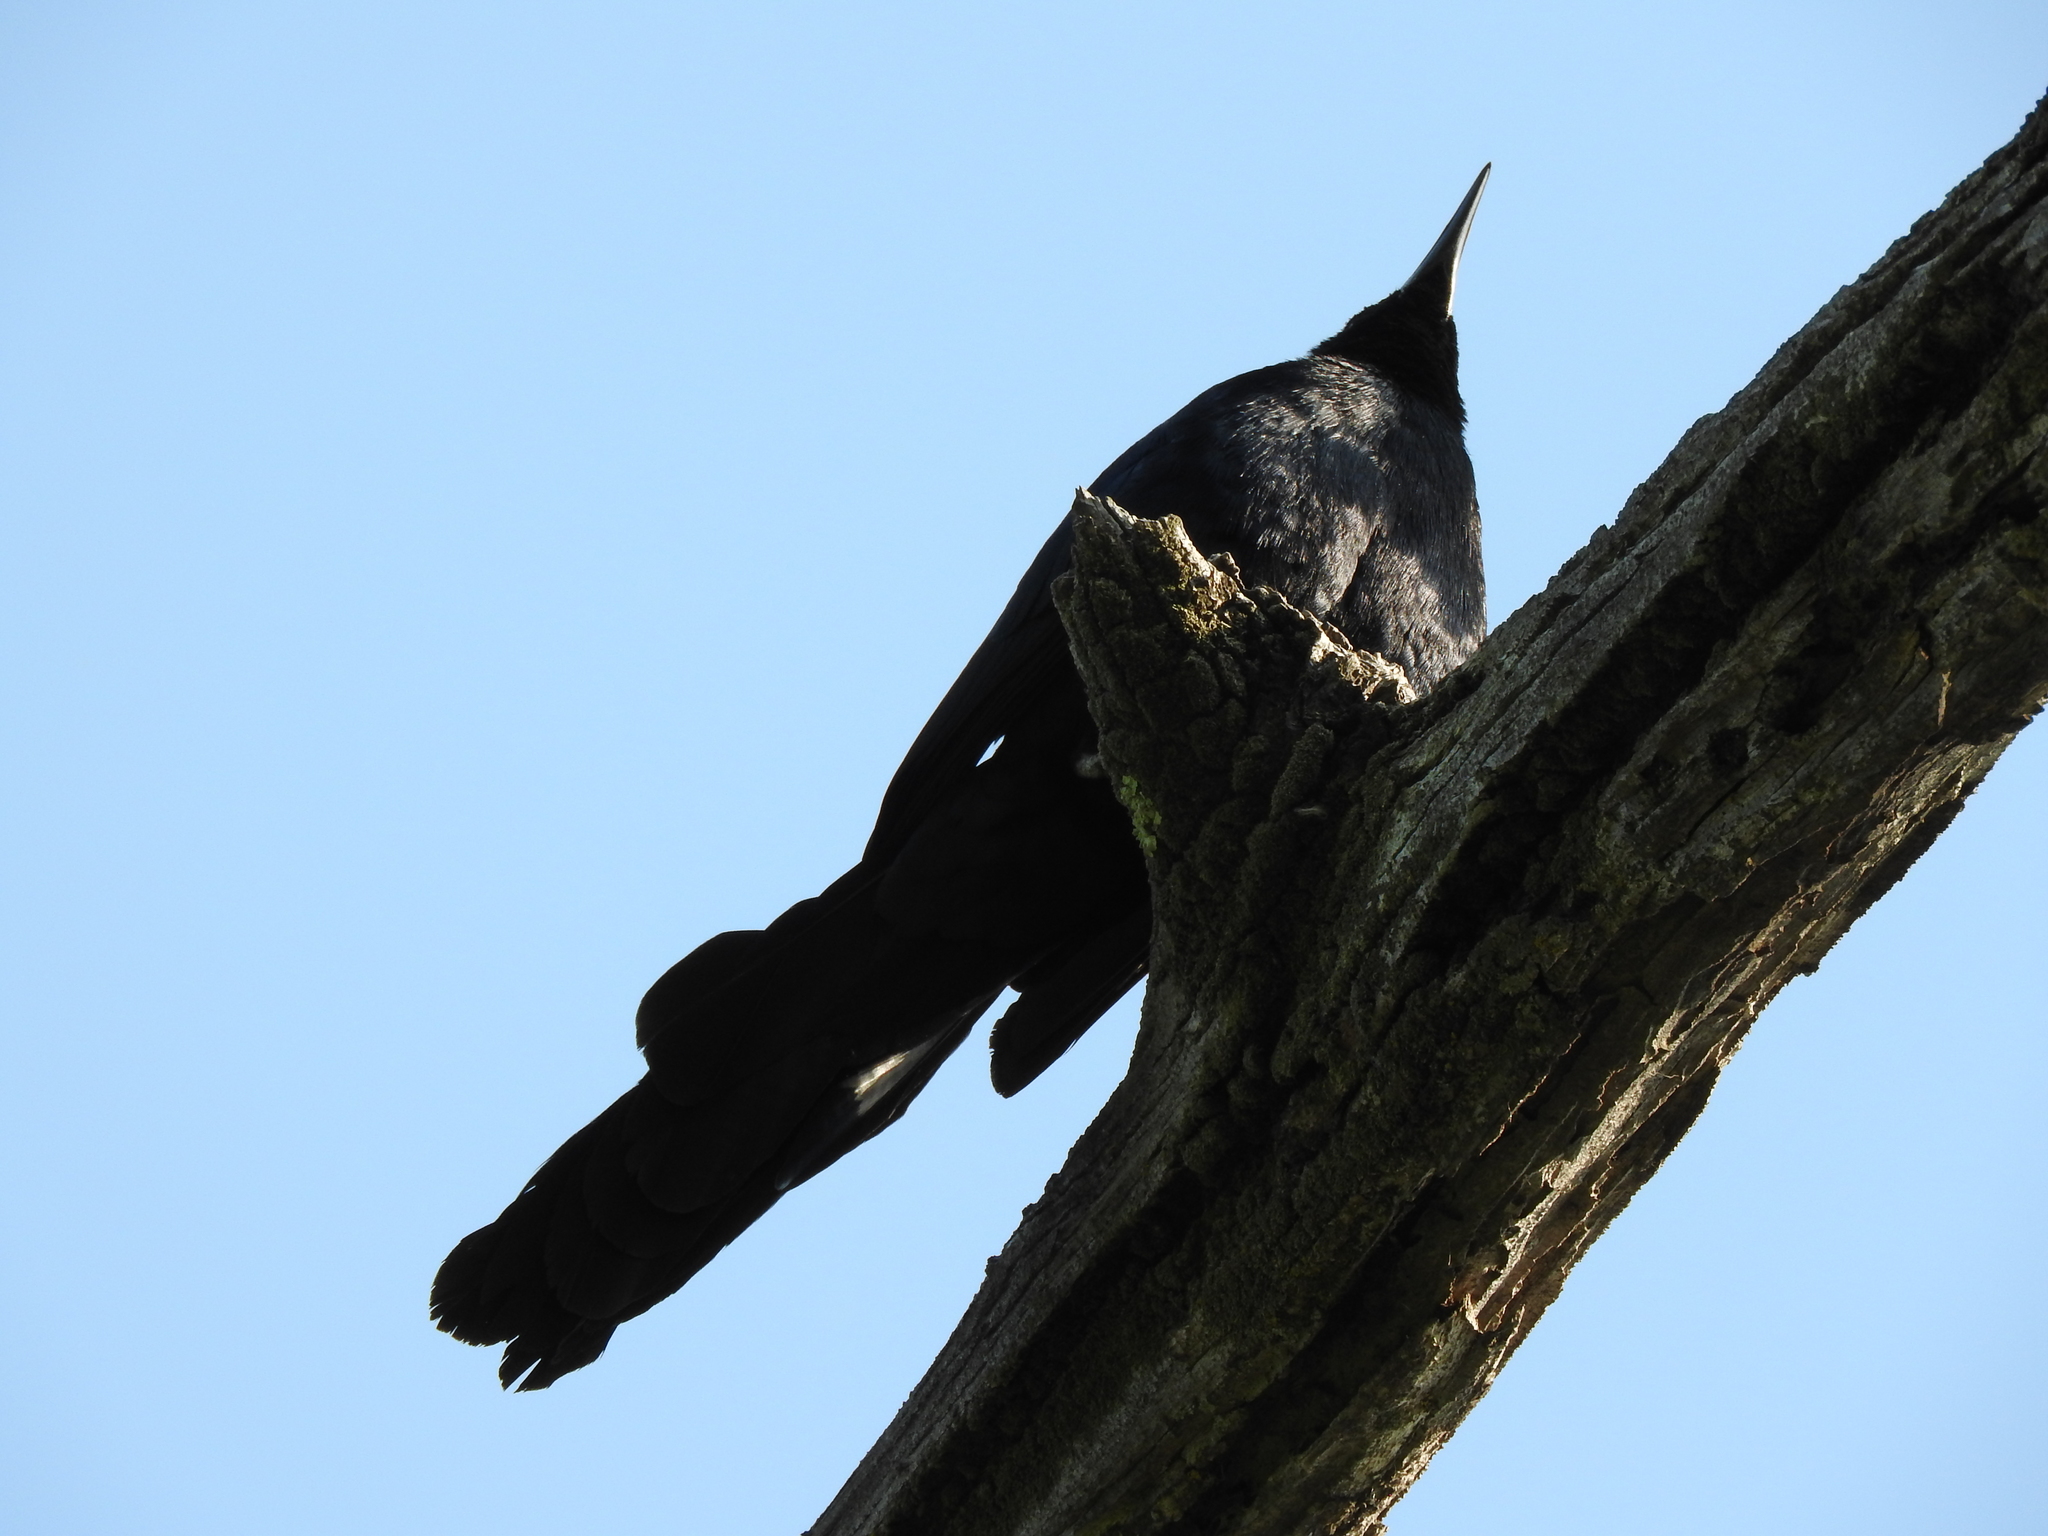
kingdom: Animalia
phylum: Chordata
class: Aves
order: Passeriformes
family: Icteridae
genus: Quiscalus
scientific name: Quiscalus mexicanus
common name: Great-tailed grackle
